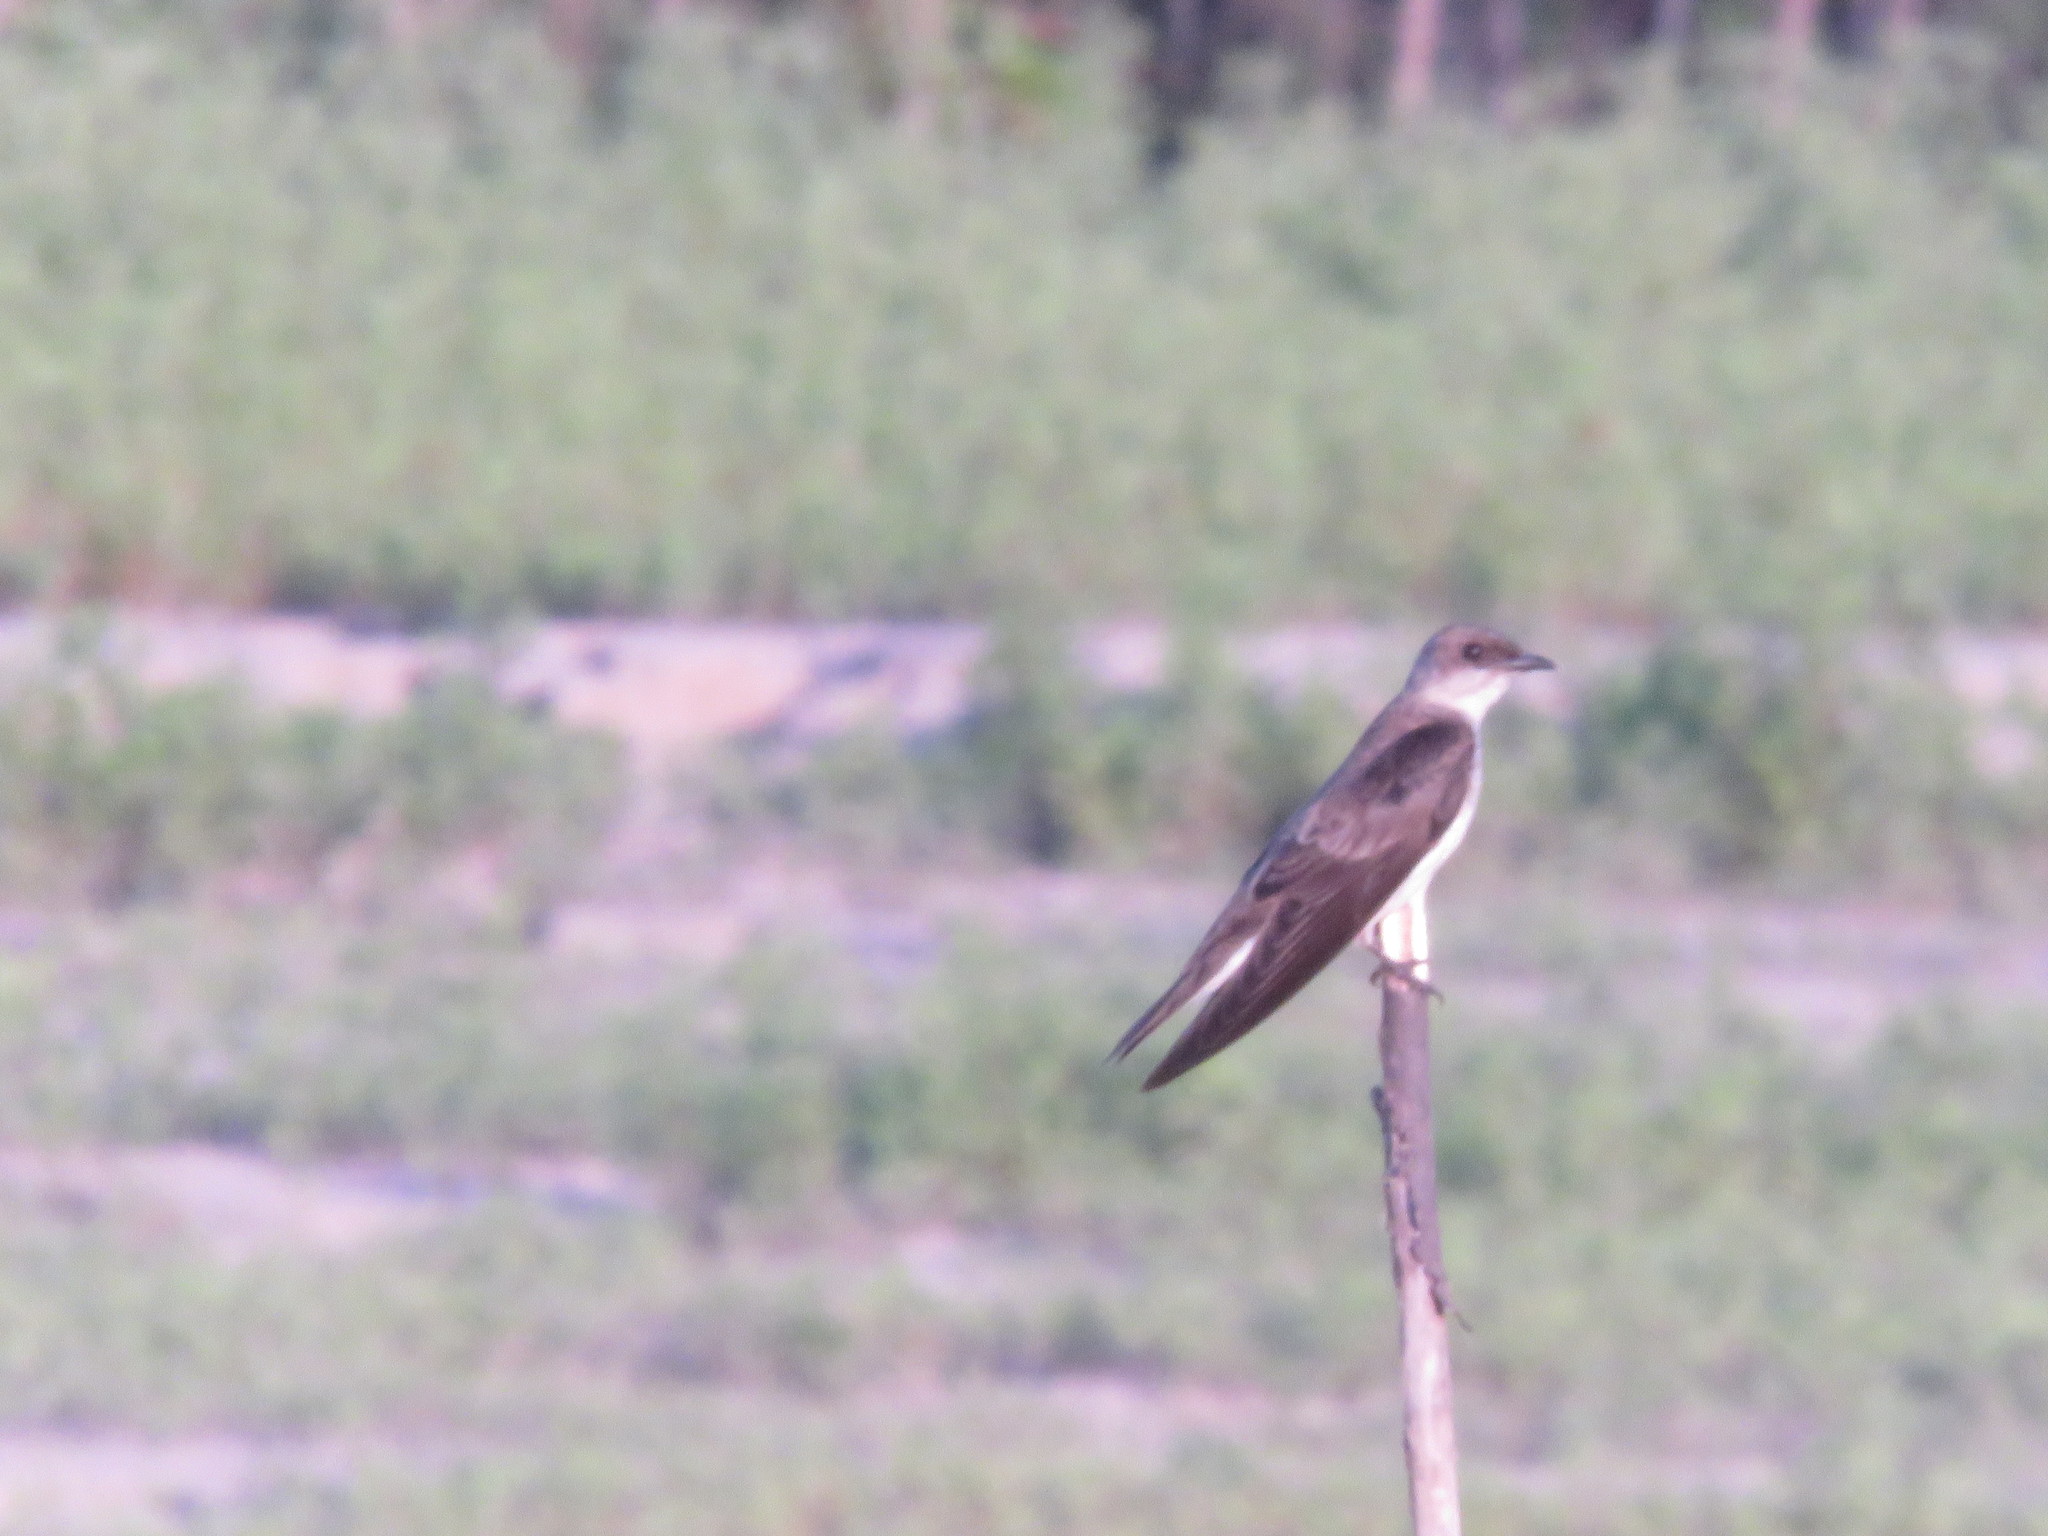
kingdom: Animalia
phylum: Chordata
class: Aves
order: Passeriformes
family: Hirundinidae
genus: Progne
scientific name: Progne tapera
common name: Brown-chested martin
